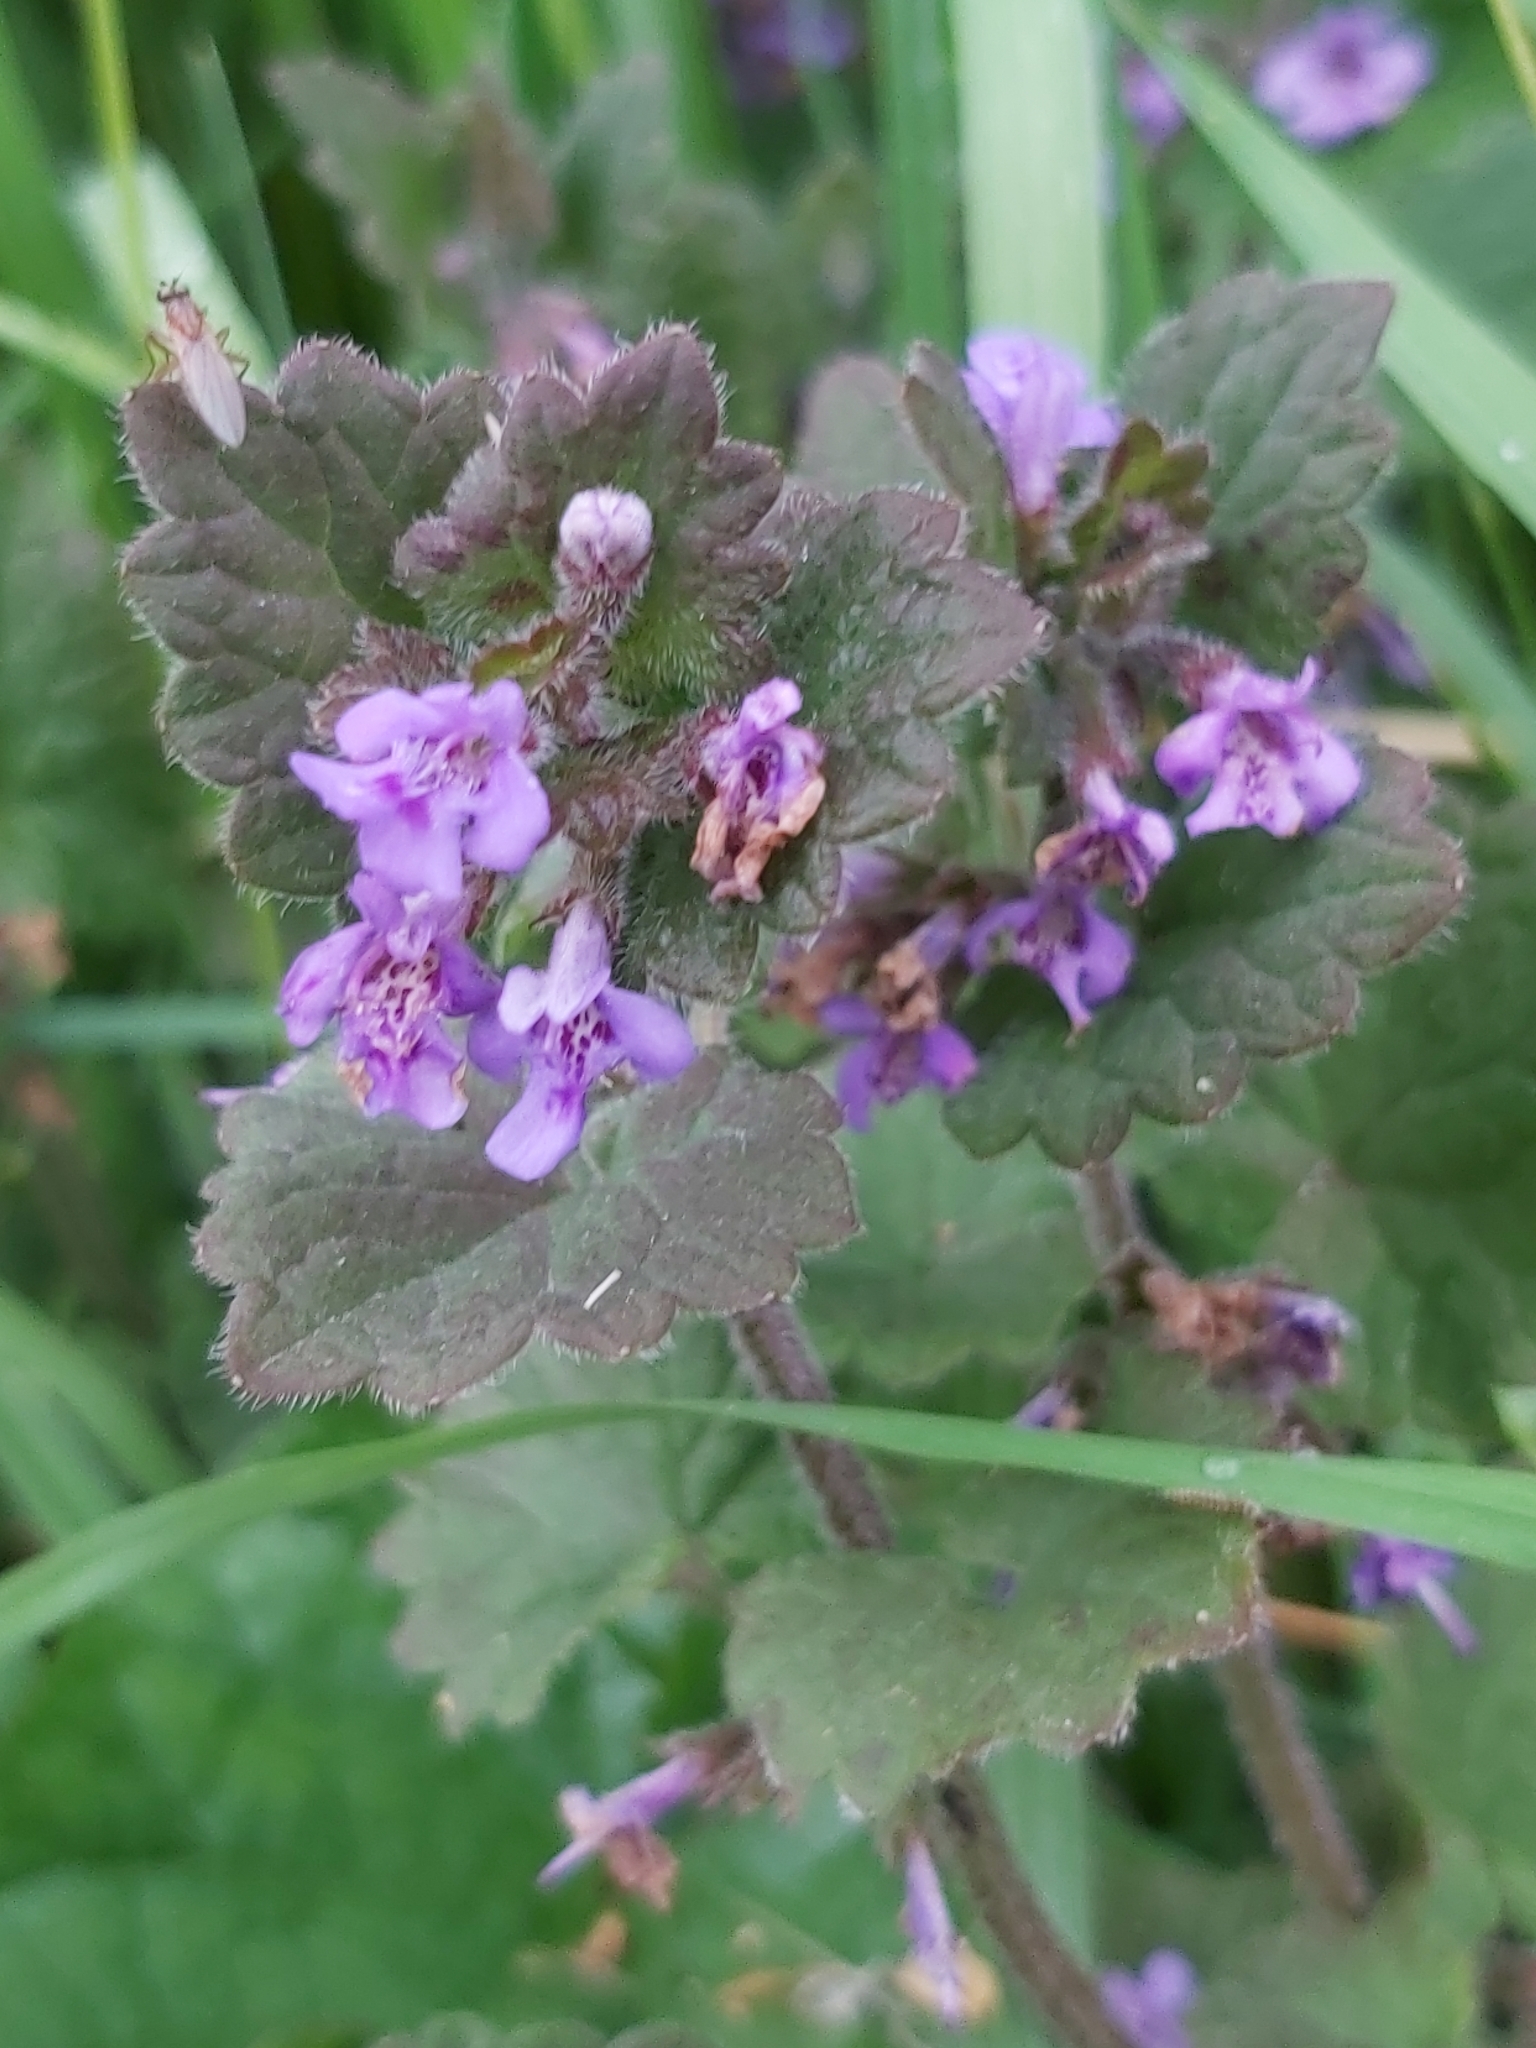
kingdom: Plantae
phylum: Tracheophyta
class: Magnoliopsida
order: Lamiales
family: Lamiaceae
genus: Glechoma
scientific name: Glechoma hederacea
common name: Ground ivy
